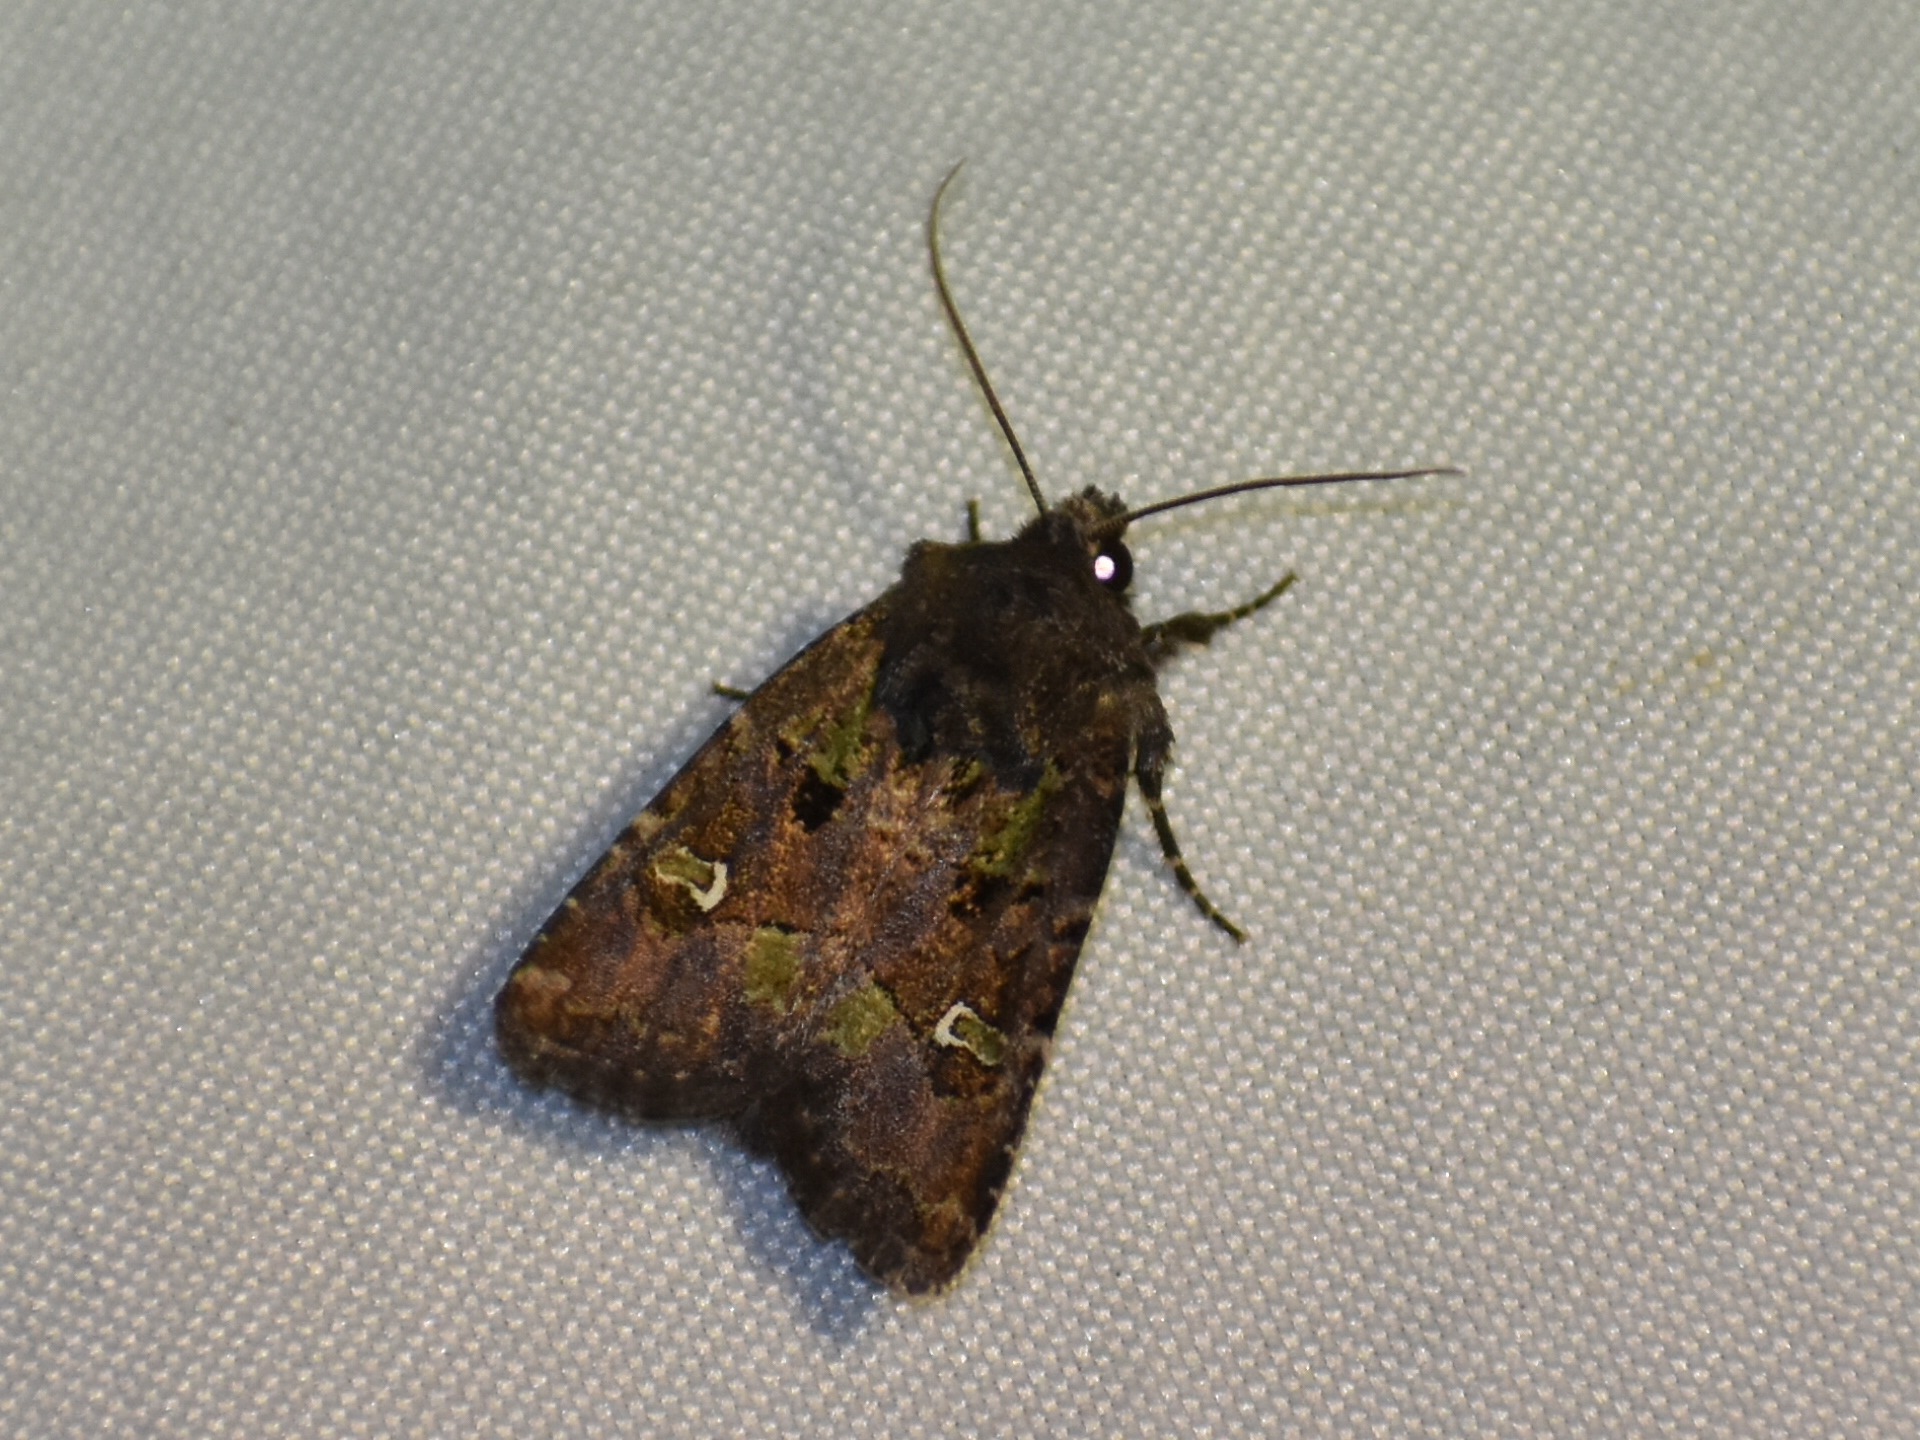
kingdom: Animalia
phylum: Arthropoda
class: Insecta
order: Lepidoptera
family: Noctuidae
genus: Lacinipolia
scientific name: Lacinipolia renigera
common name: Kidney-spotted minor
